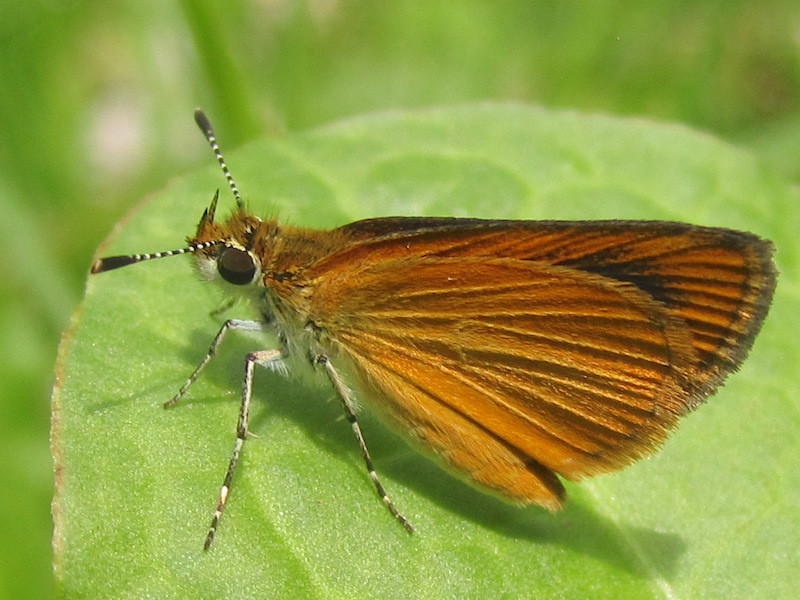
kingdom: Animalia
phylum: Arthropoda
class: Insecta
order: Lepidoptera
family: Hesperiidae
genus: Ancyloxypha
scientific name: Ancyloxypha numitor
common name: Least skipper
